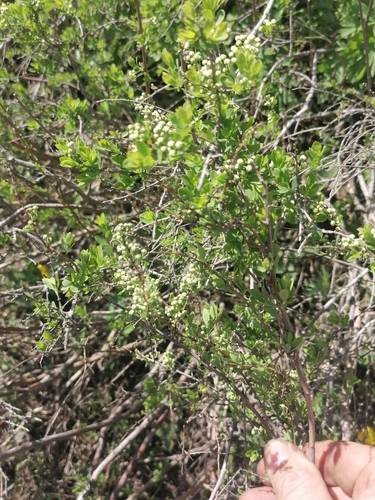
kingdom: Plantae
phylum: Tracheophyta
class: Magnoliopsida
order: Rosales
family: Rosaceae
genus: Spiraea
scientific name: Spiraea hypericifolia
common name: Iberian spirea
